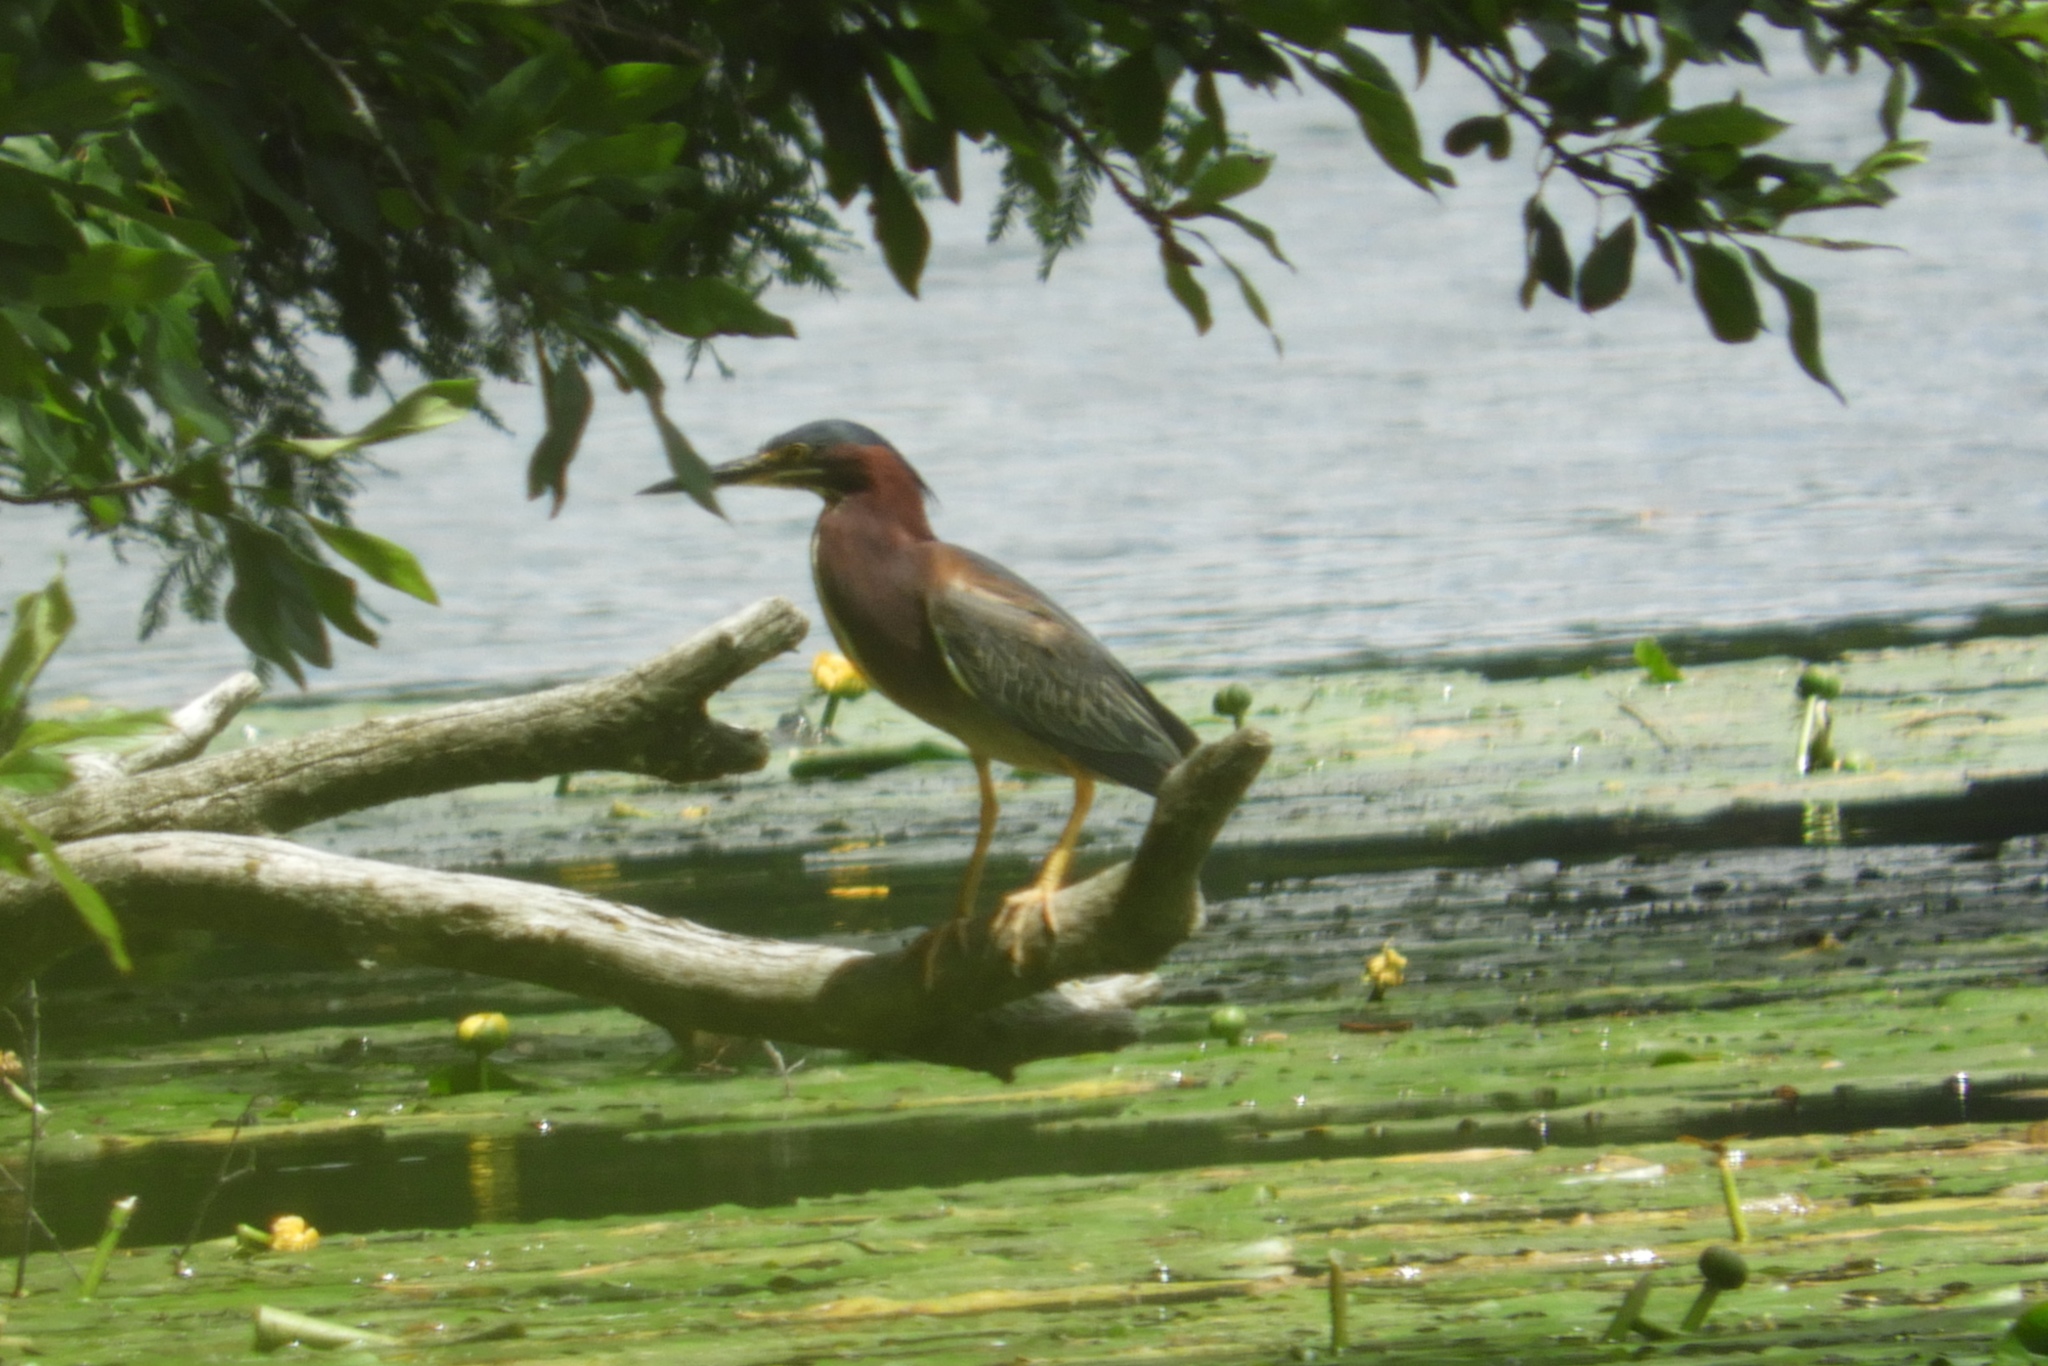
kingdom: Animalia
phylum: Chordata
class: Aves
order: Pelecaniformes
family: Ardeidae
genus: Butorides
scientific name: Butorides virescens
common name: Green heron
